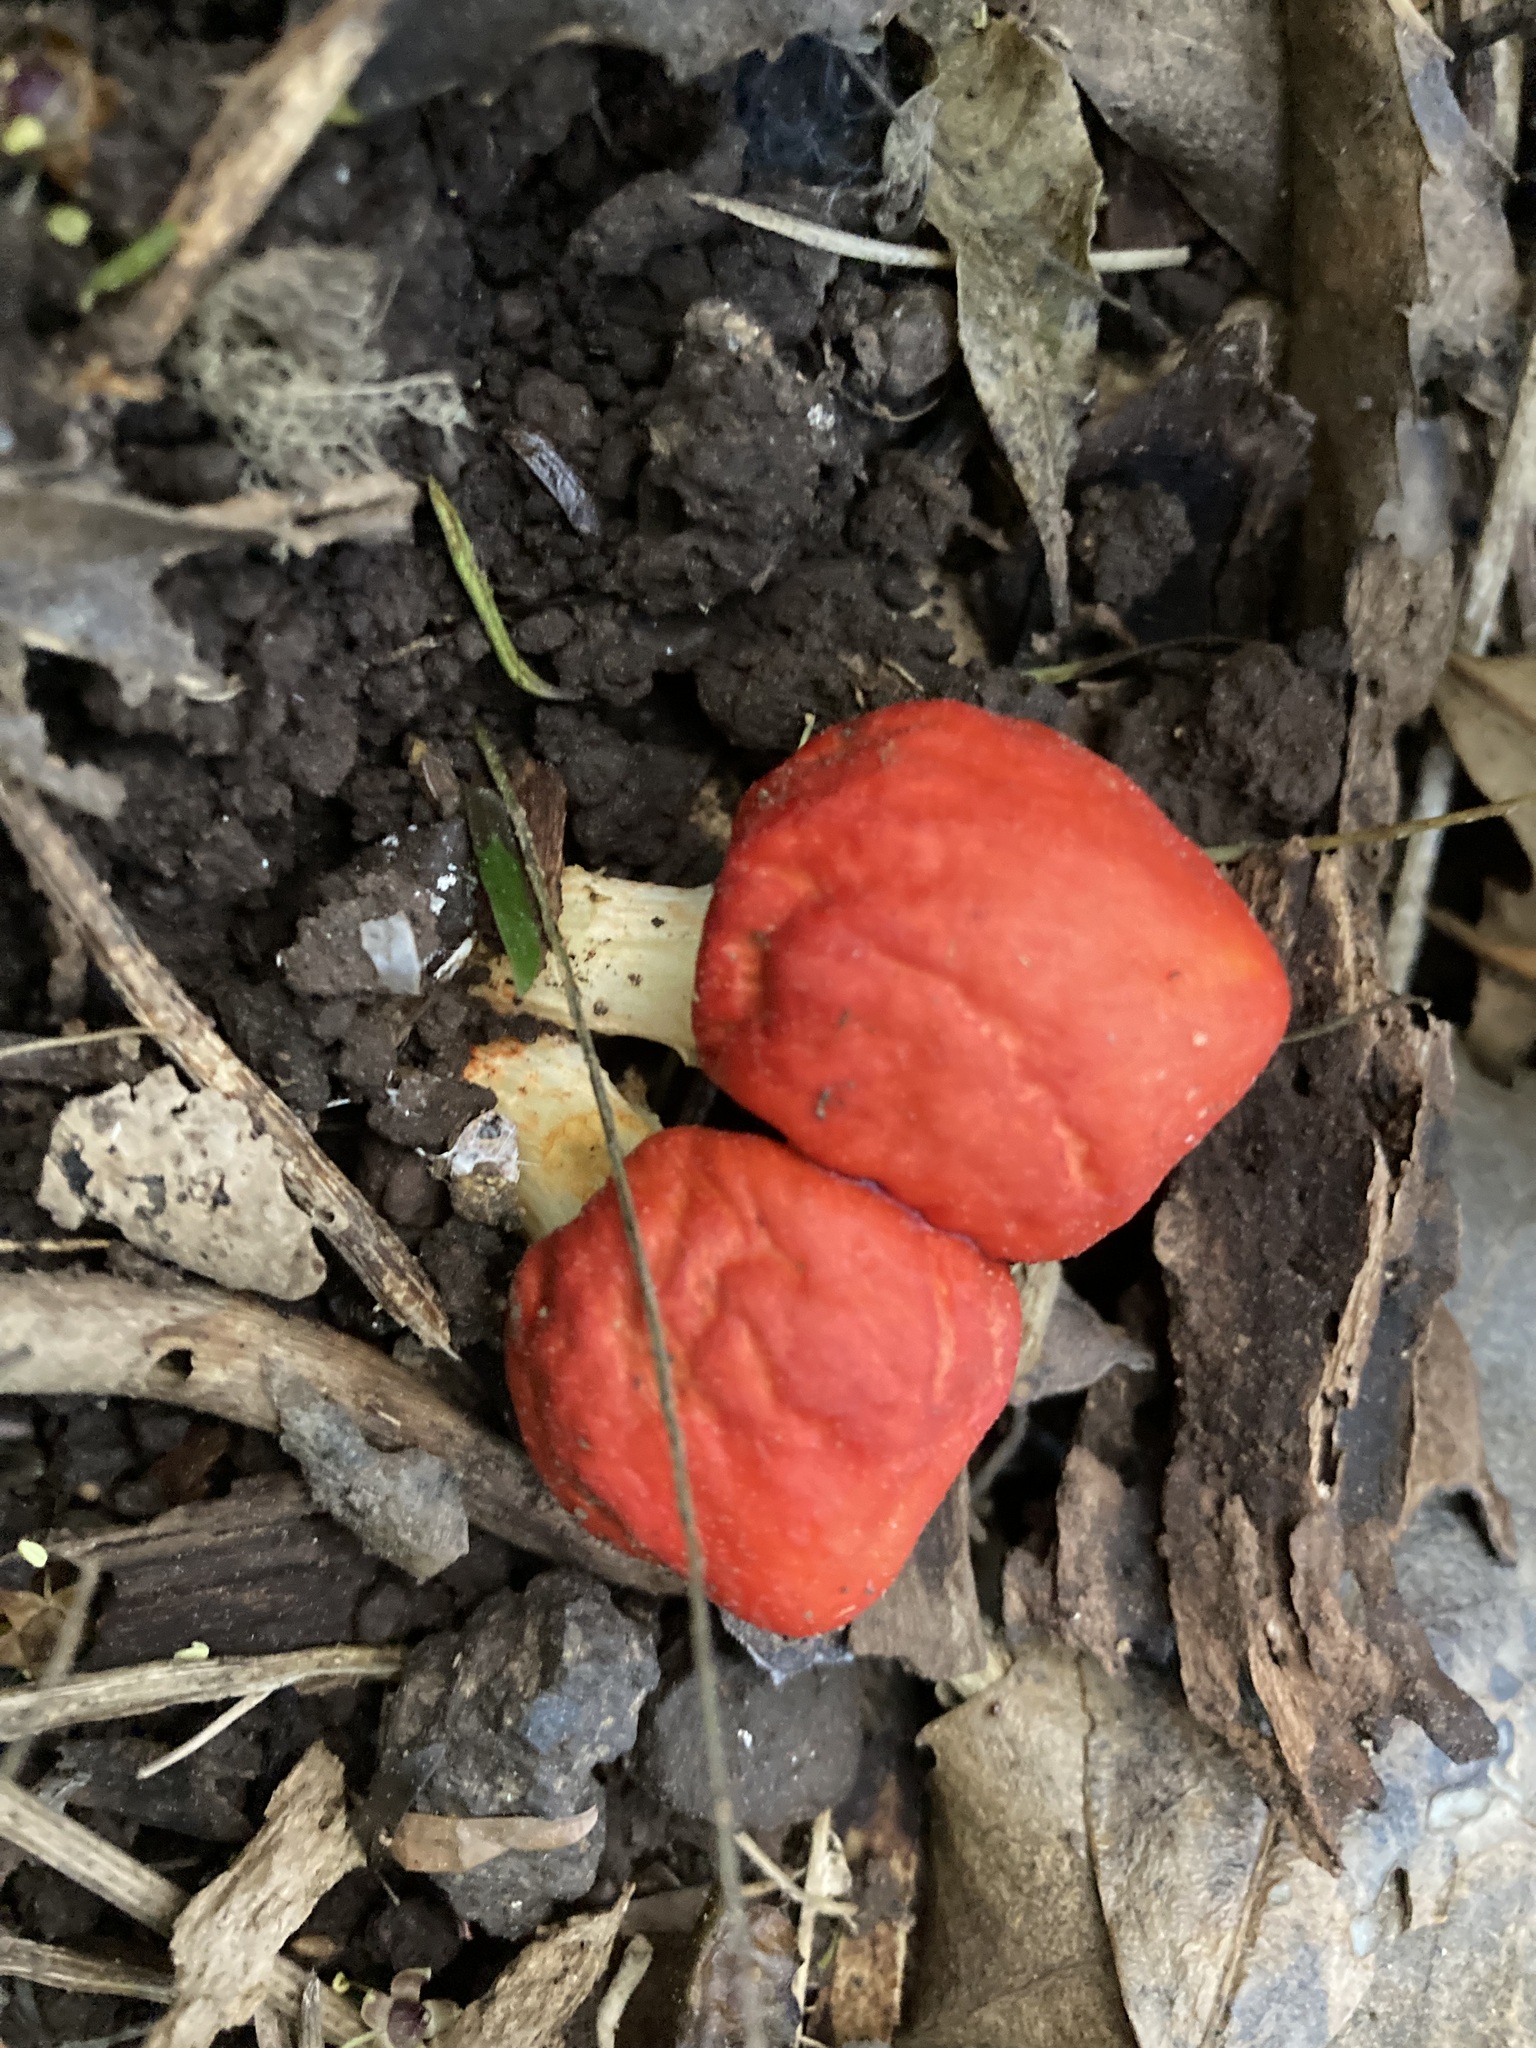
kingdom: Fungi
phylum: Basidiomycota
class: Agaricomycetes
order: Agaricales
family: Strophariaceae
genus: Leratiomyces
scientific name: Leratiomyces erythrocephalus
